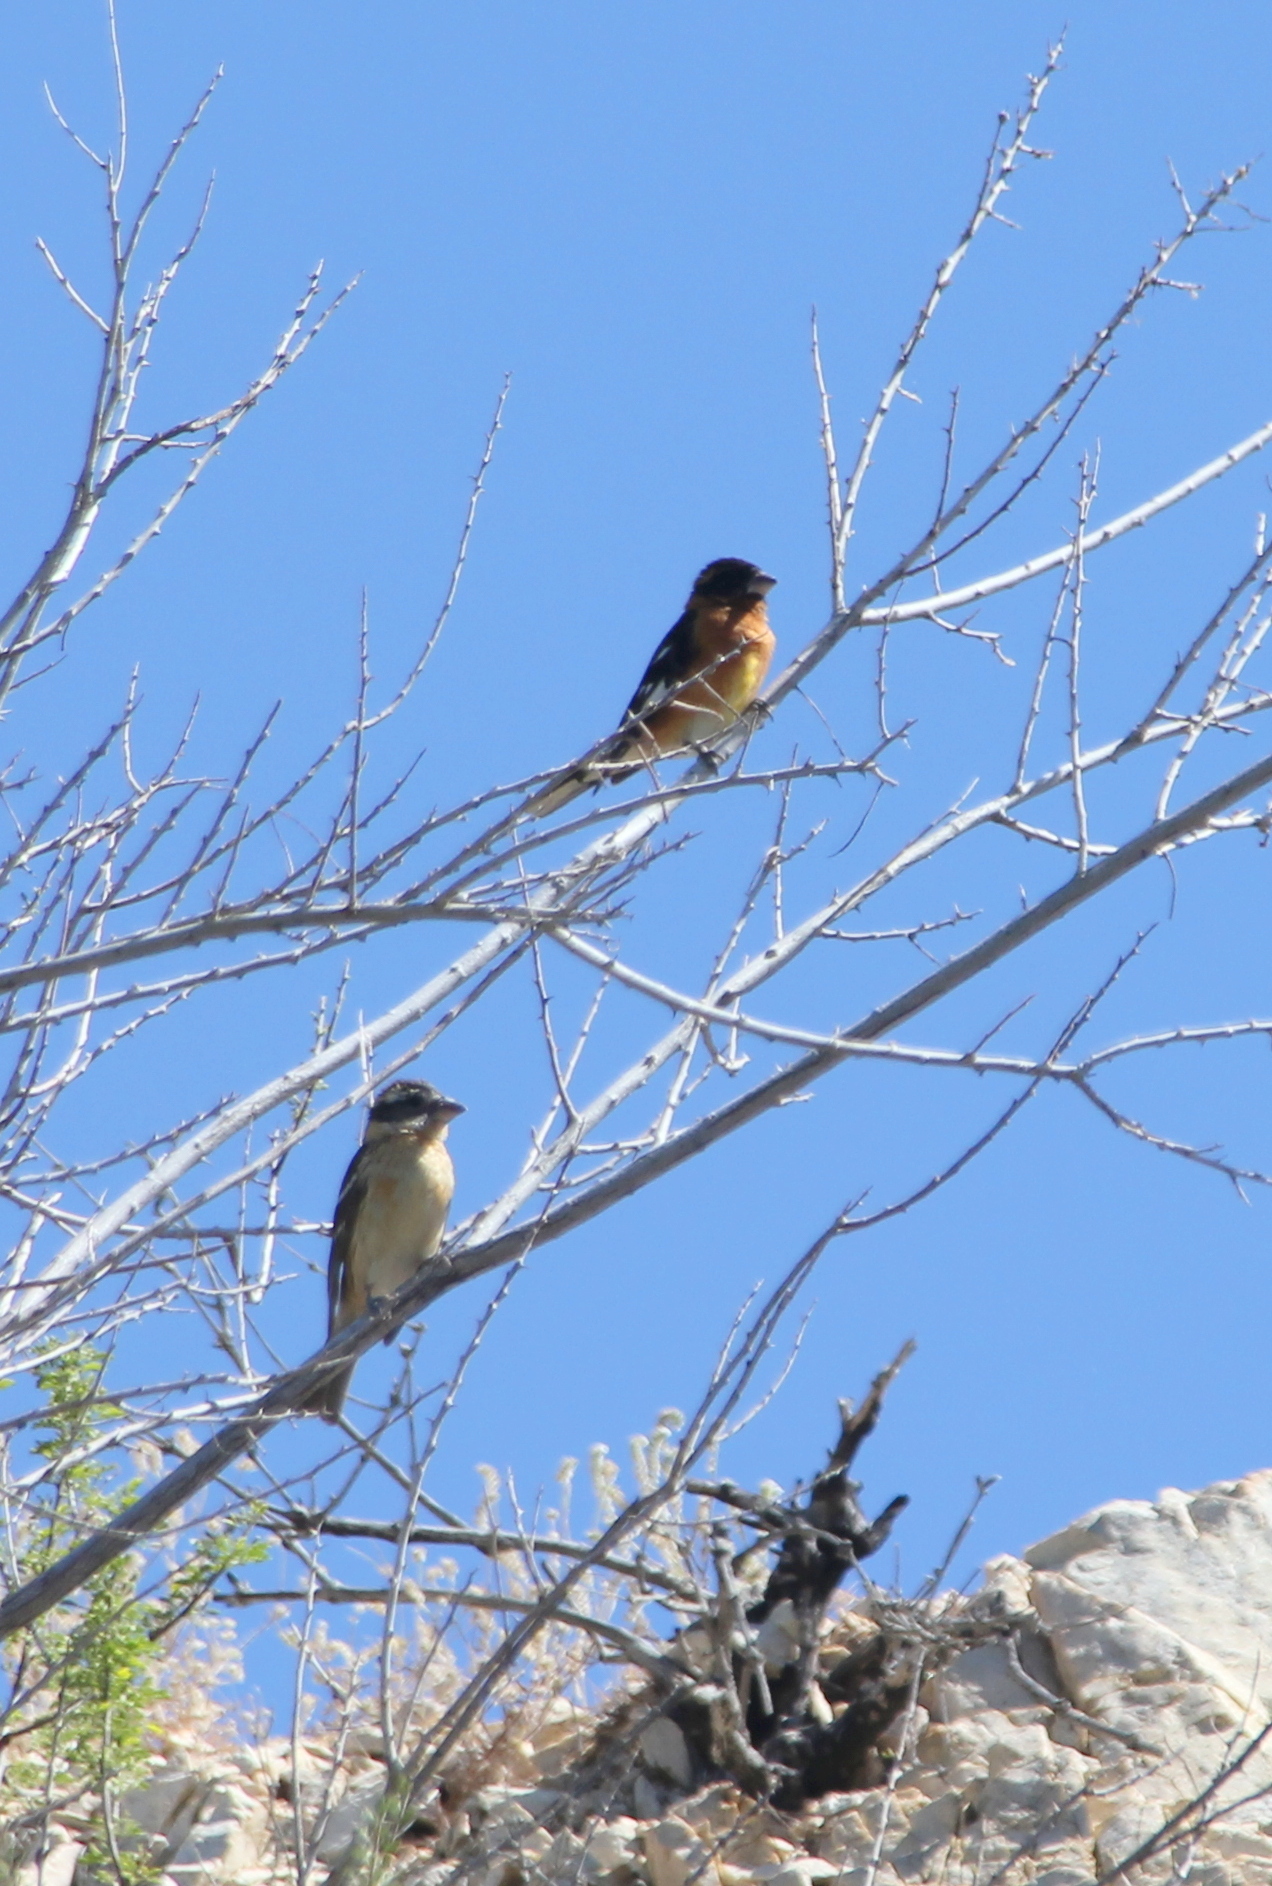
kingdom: Animalia
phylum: Chordata
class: Aves
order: Passeriformes
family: Cardinalidae
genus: Pheucticus
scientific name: Pheucticus melanocephalus
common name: Black-headed grosbeak
